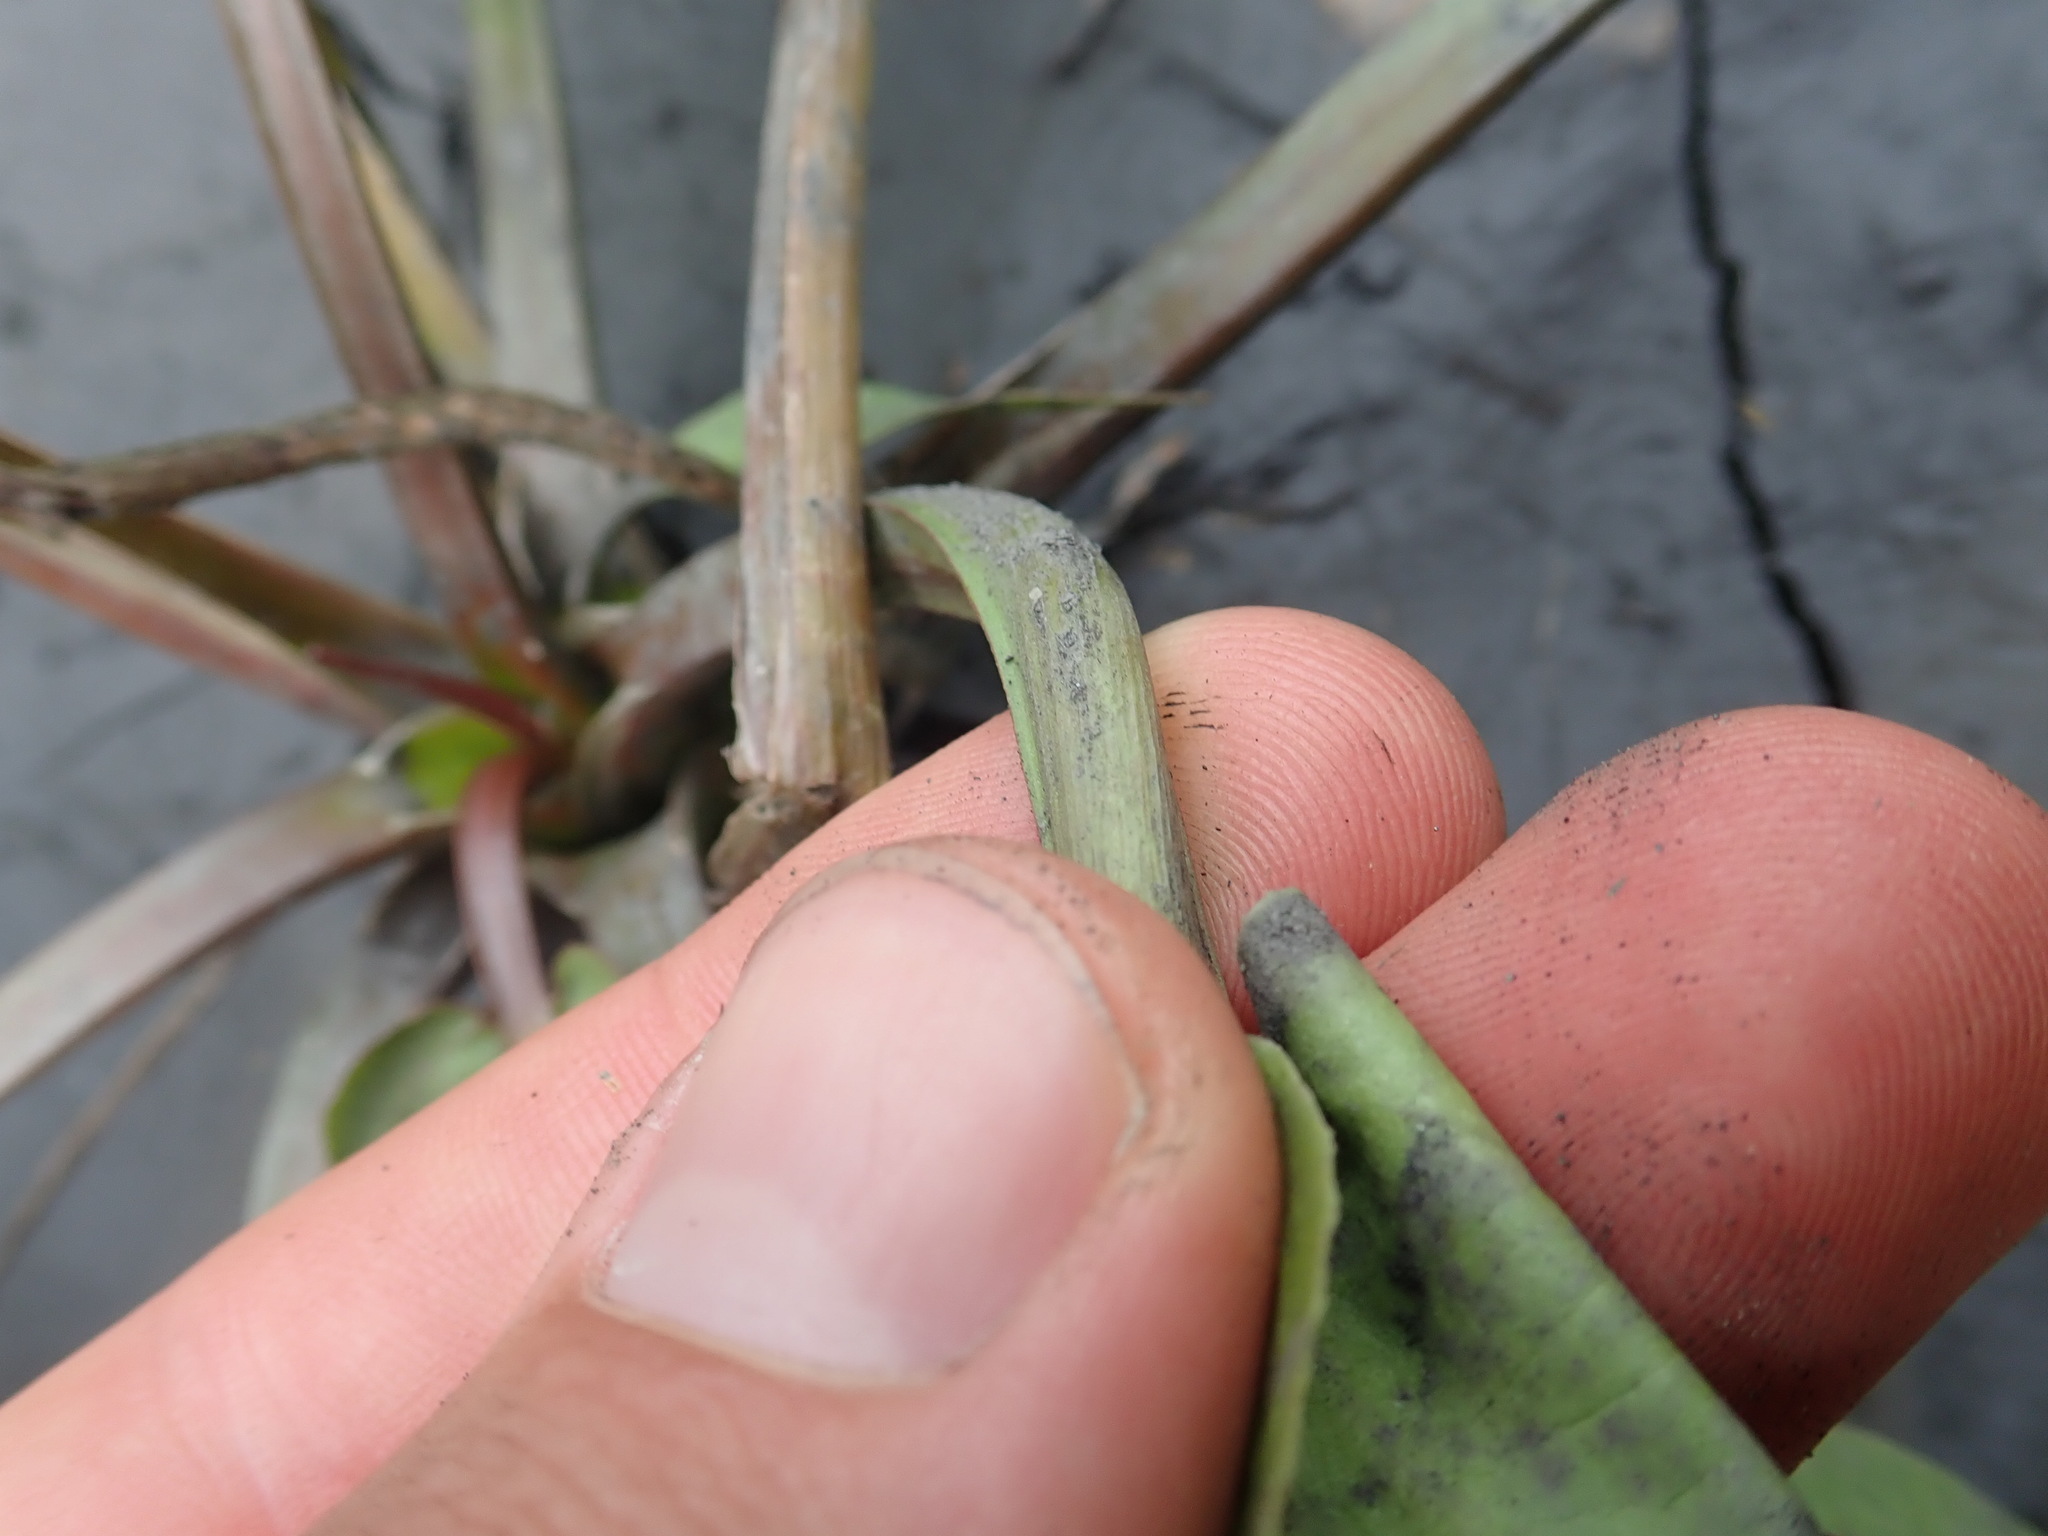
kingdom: Plantae
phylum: Tracheophyta
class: Liliopsida
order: Alismatales
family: Alismataceae
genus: Alisma
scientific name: Alisma plantago-aquatica
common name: Water-plantain
